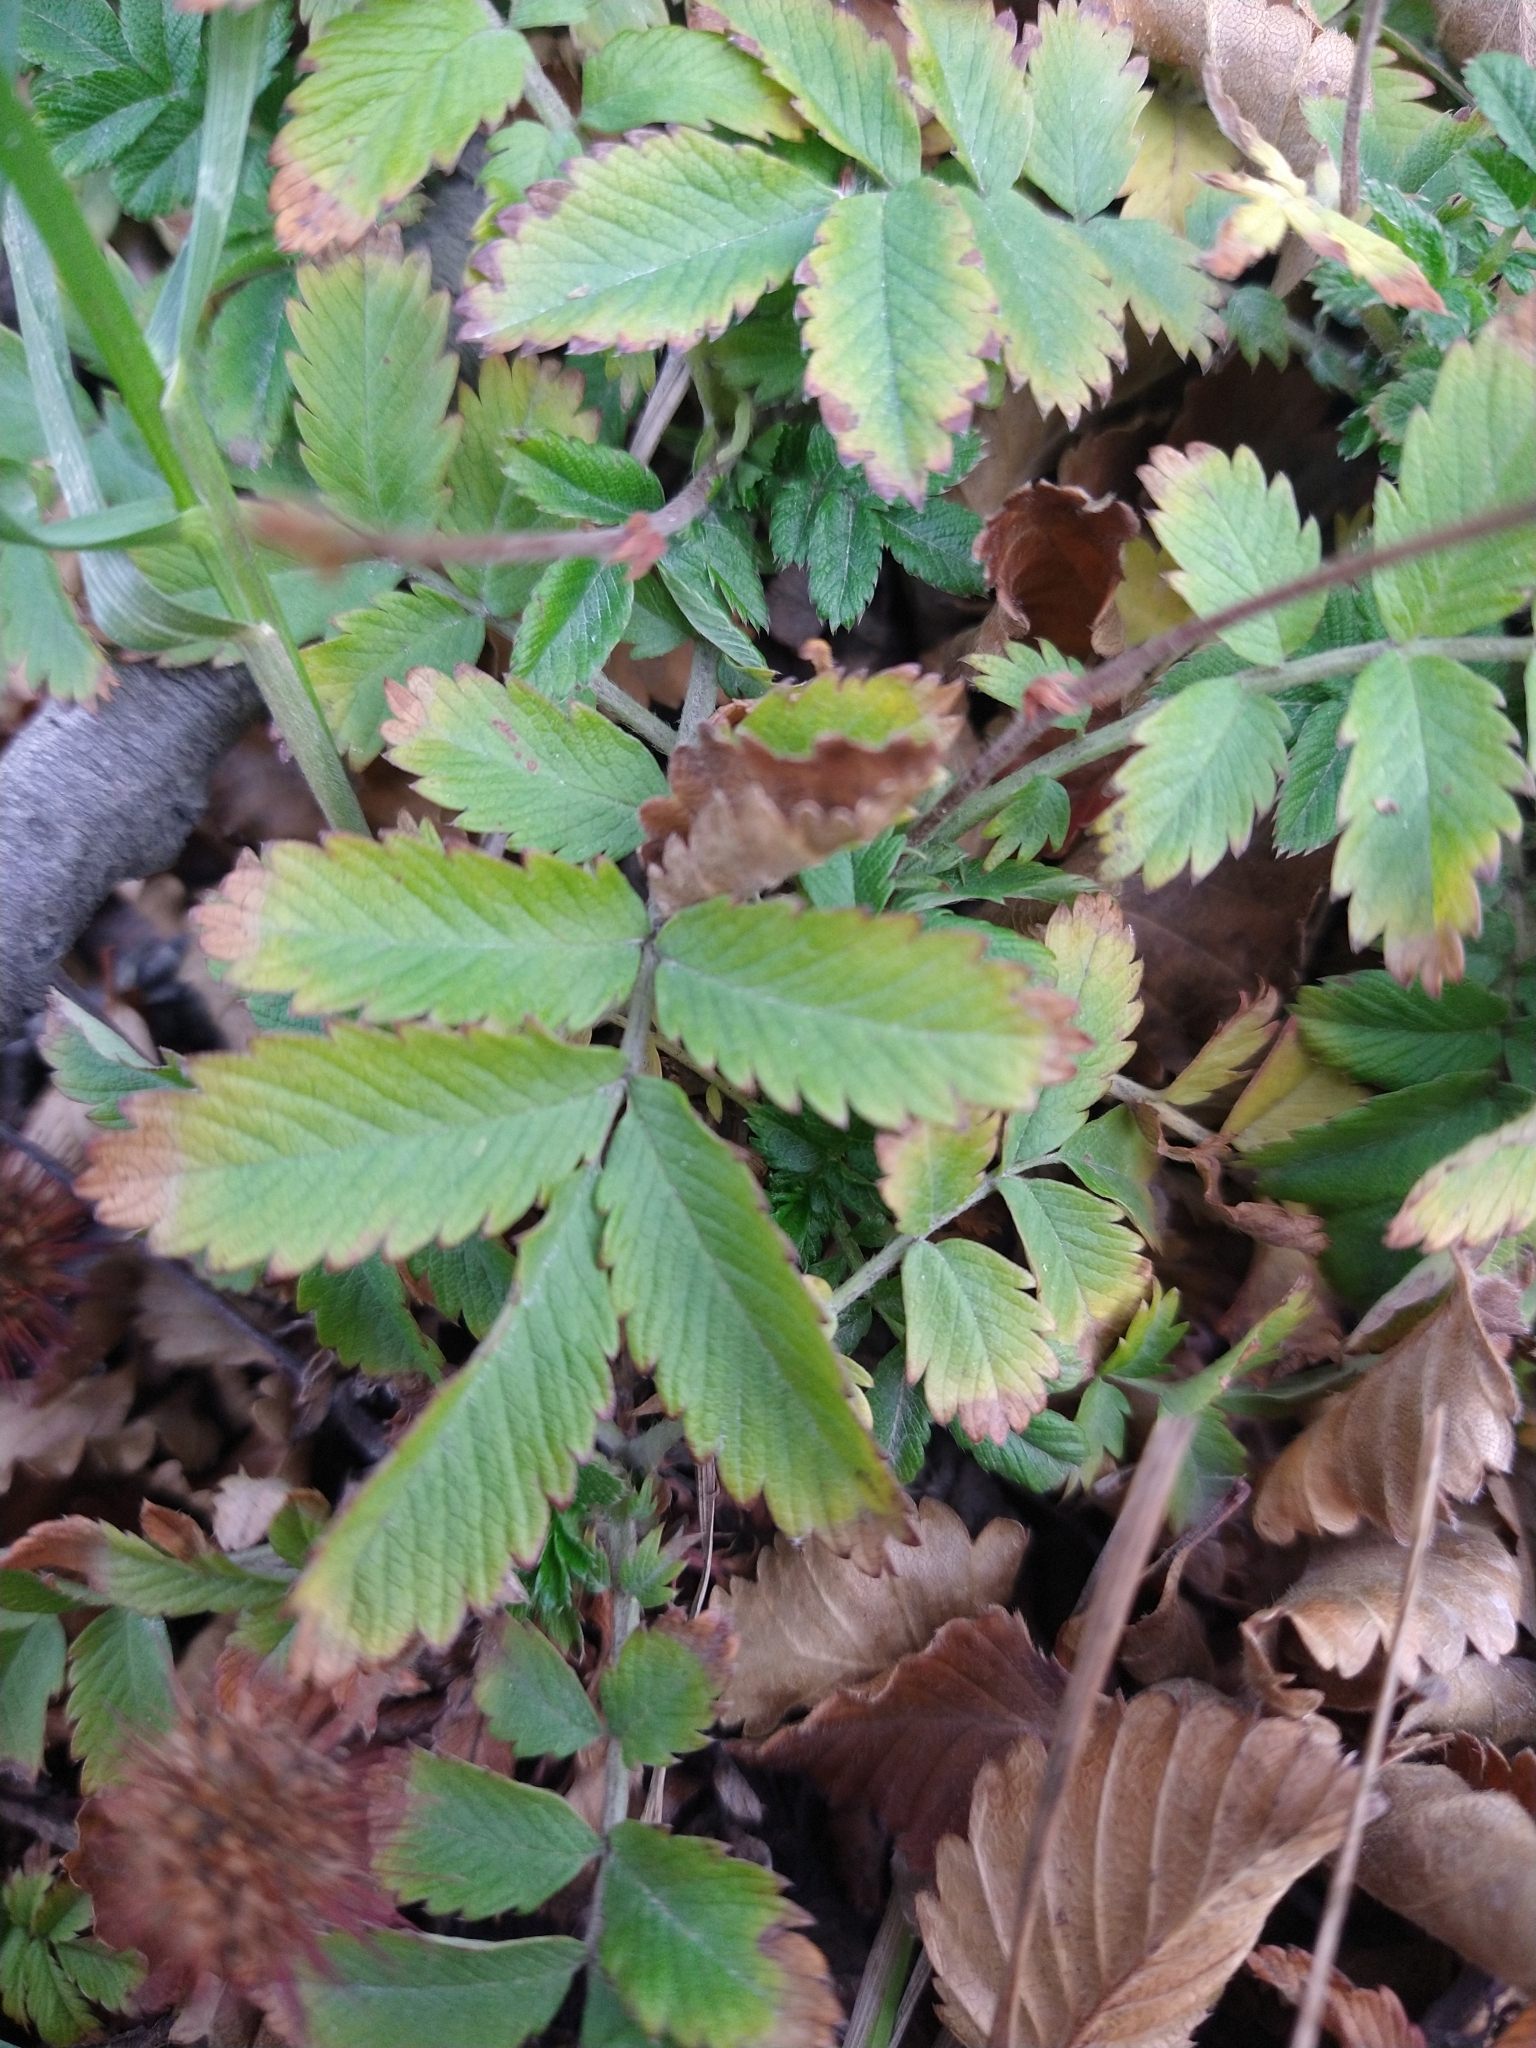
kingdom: Plantae
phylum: Tracheophyta
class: Magnoliopsida
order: Rosales
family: Rosaceae
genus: Acaena
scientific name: Acaena ovalifolia
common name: Two-spined acaena
